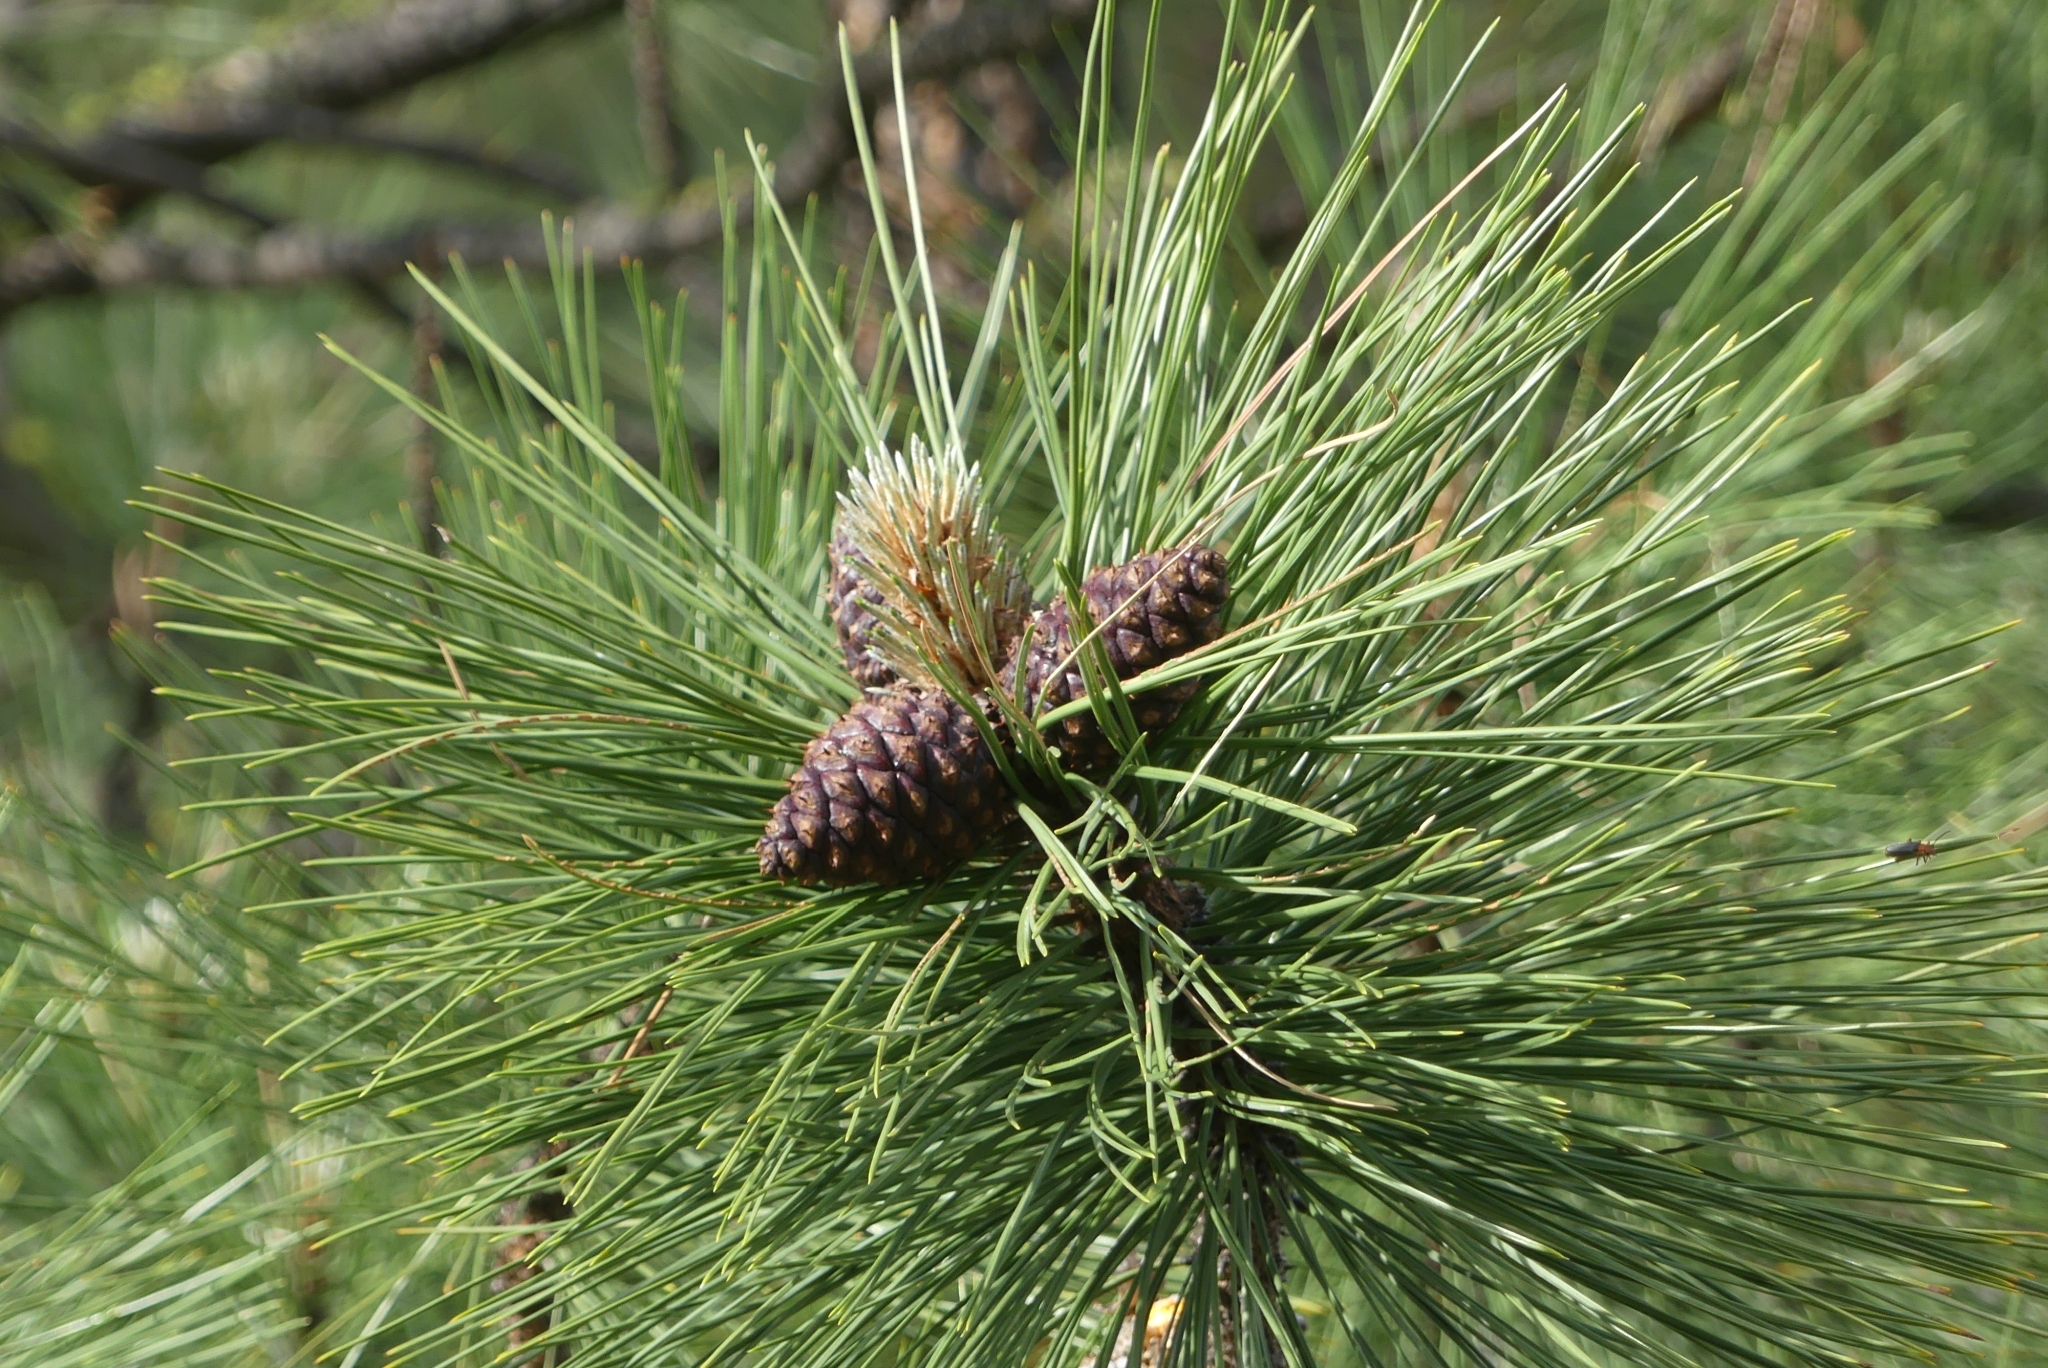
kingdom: Plantae
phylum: Tracheophyta
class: Pinopsida
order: Pinales
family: Pinaceae
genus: Pinus
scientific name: Pinus ponderosa
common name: Western yellow-pine
